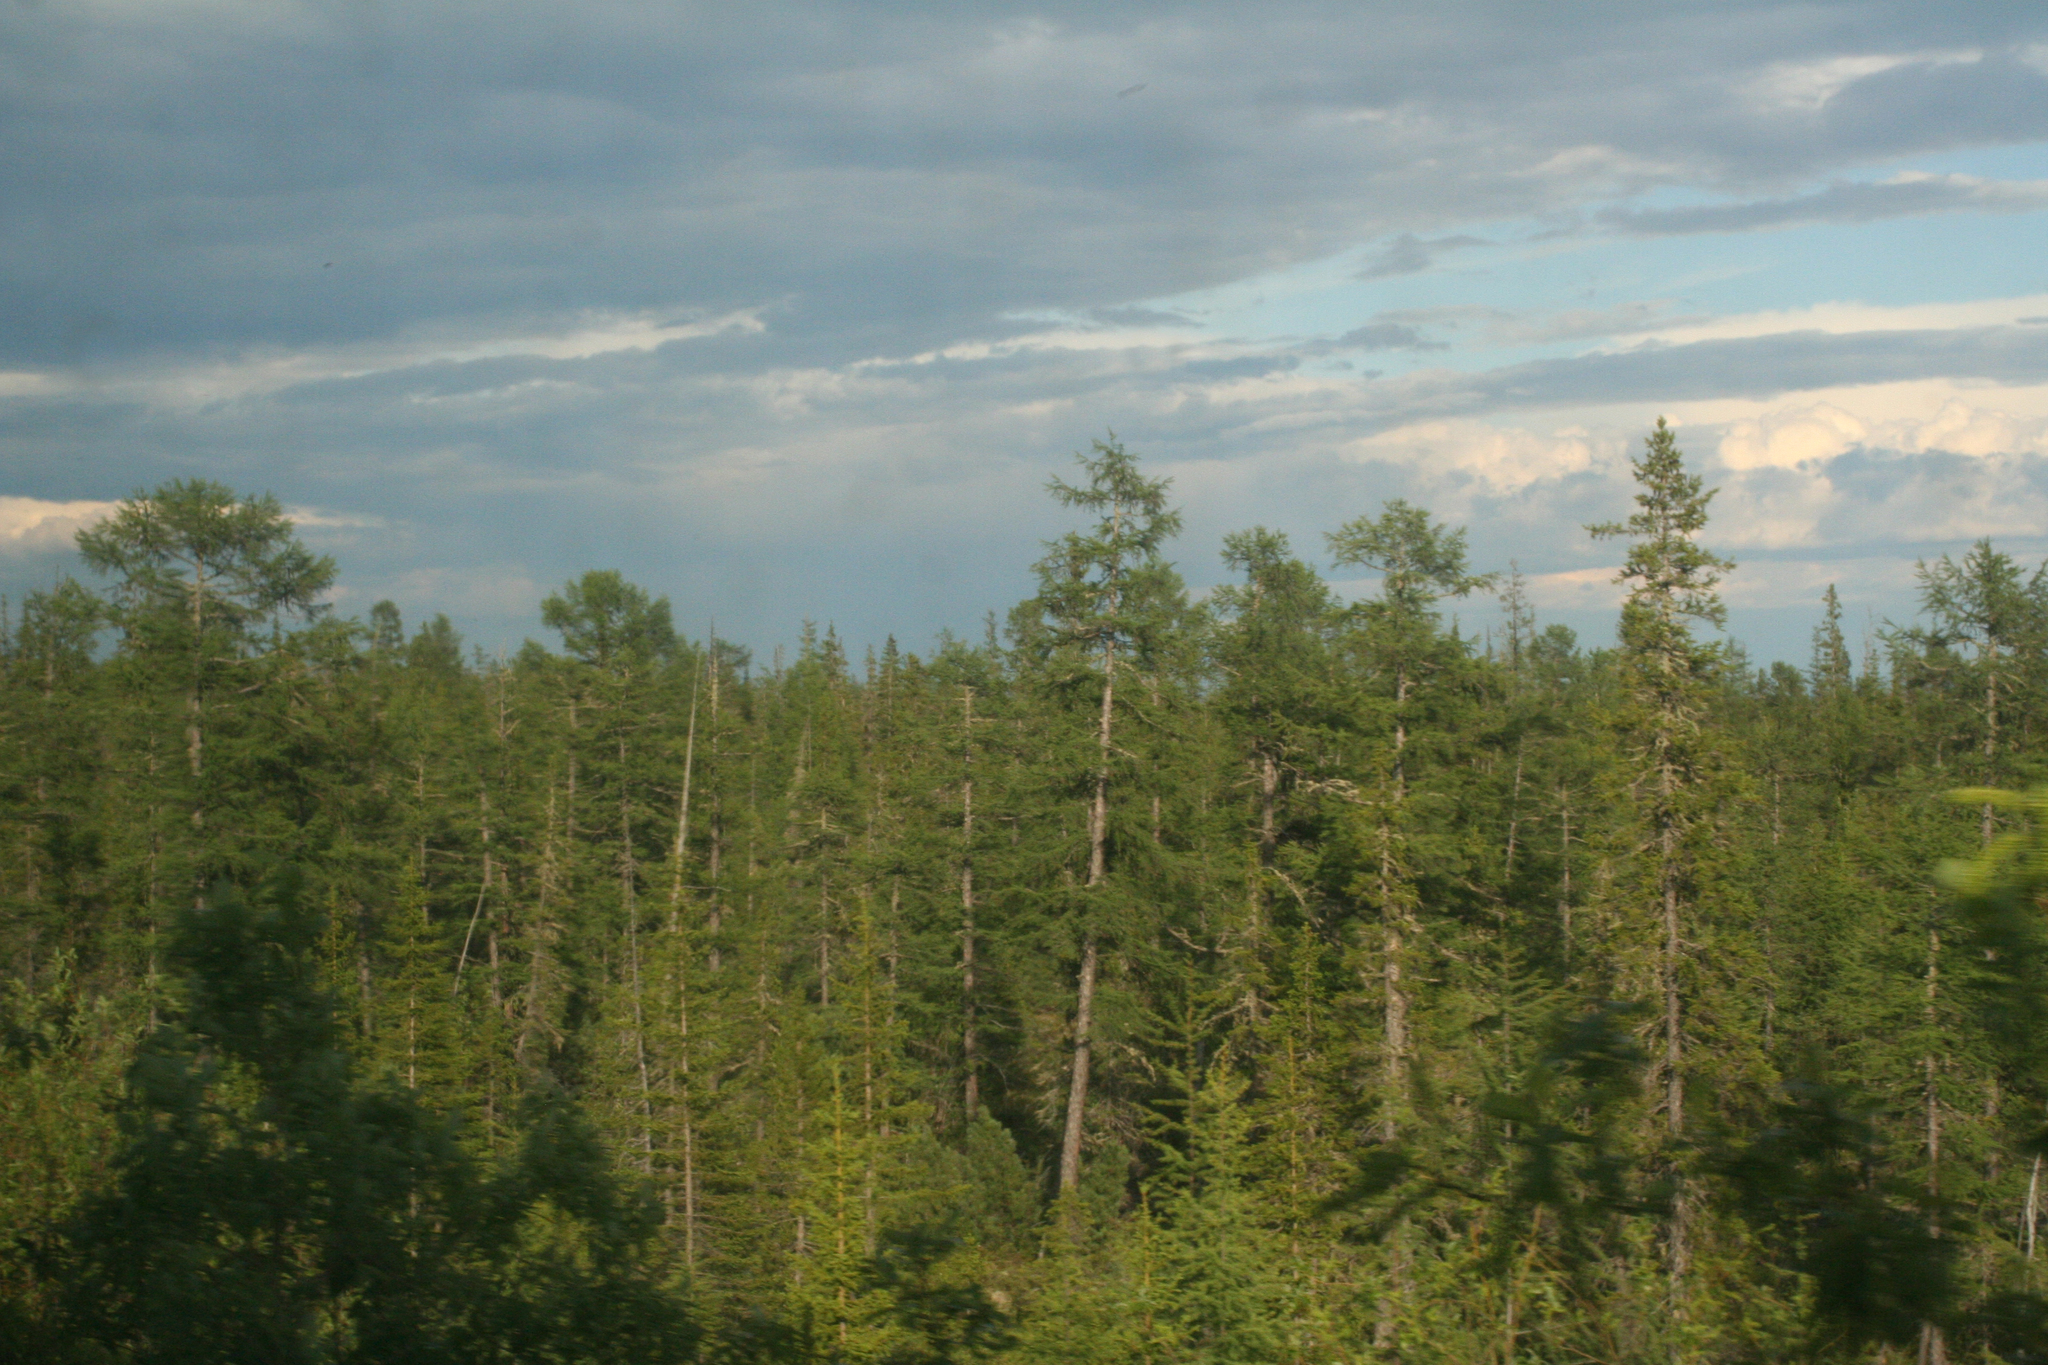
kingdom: Plantae
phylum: Tracheophyta
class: Pinopsida
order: Pinales
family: Pinaceae
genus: Larix
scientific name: Larix gmelinii
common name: Dahurian larch
